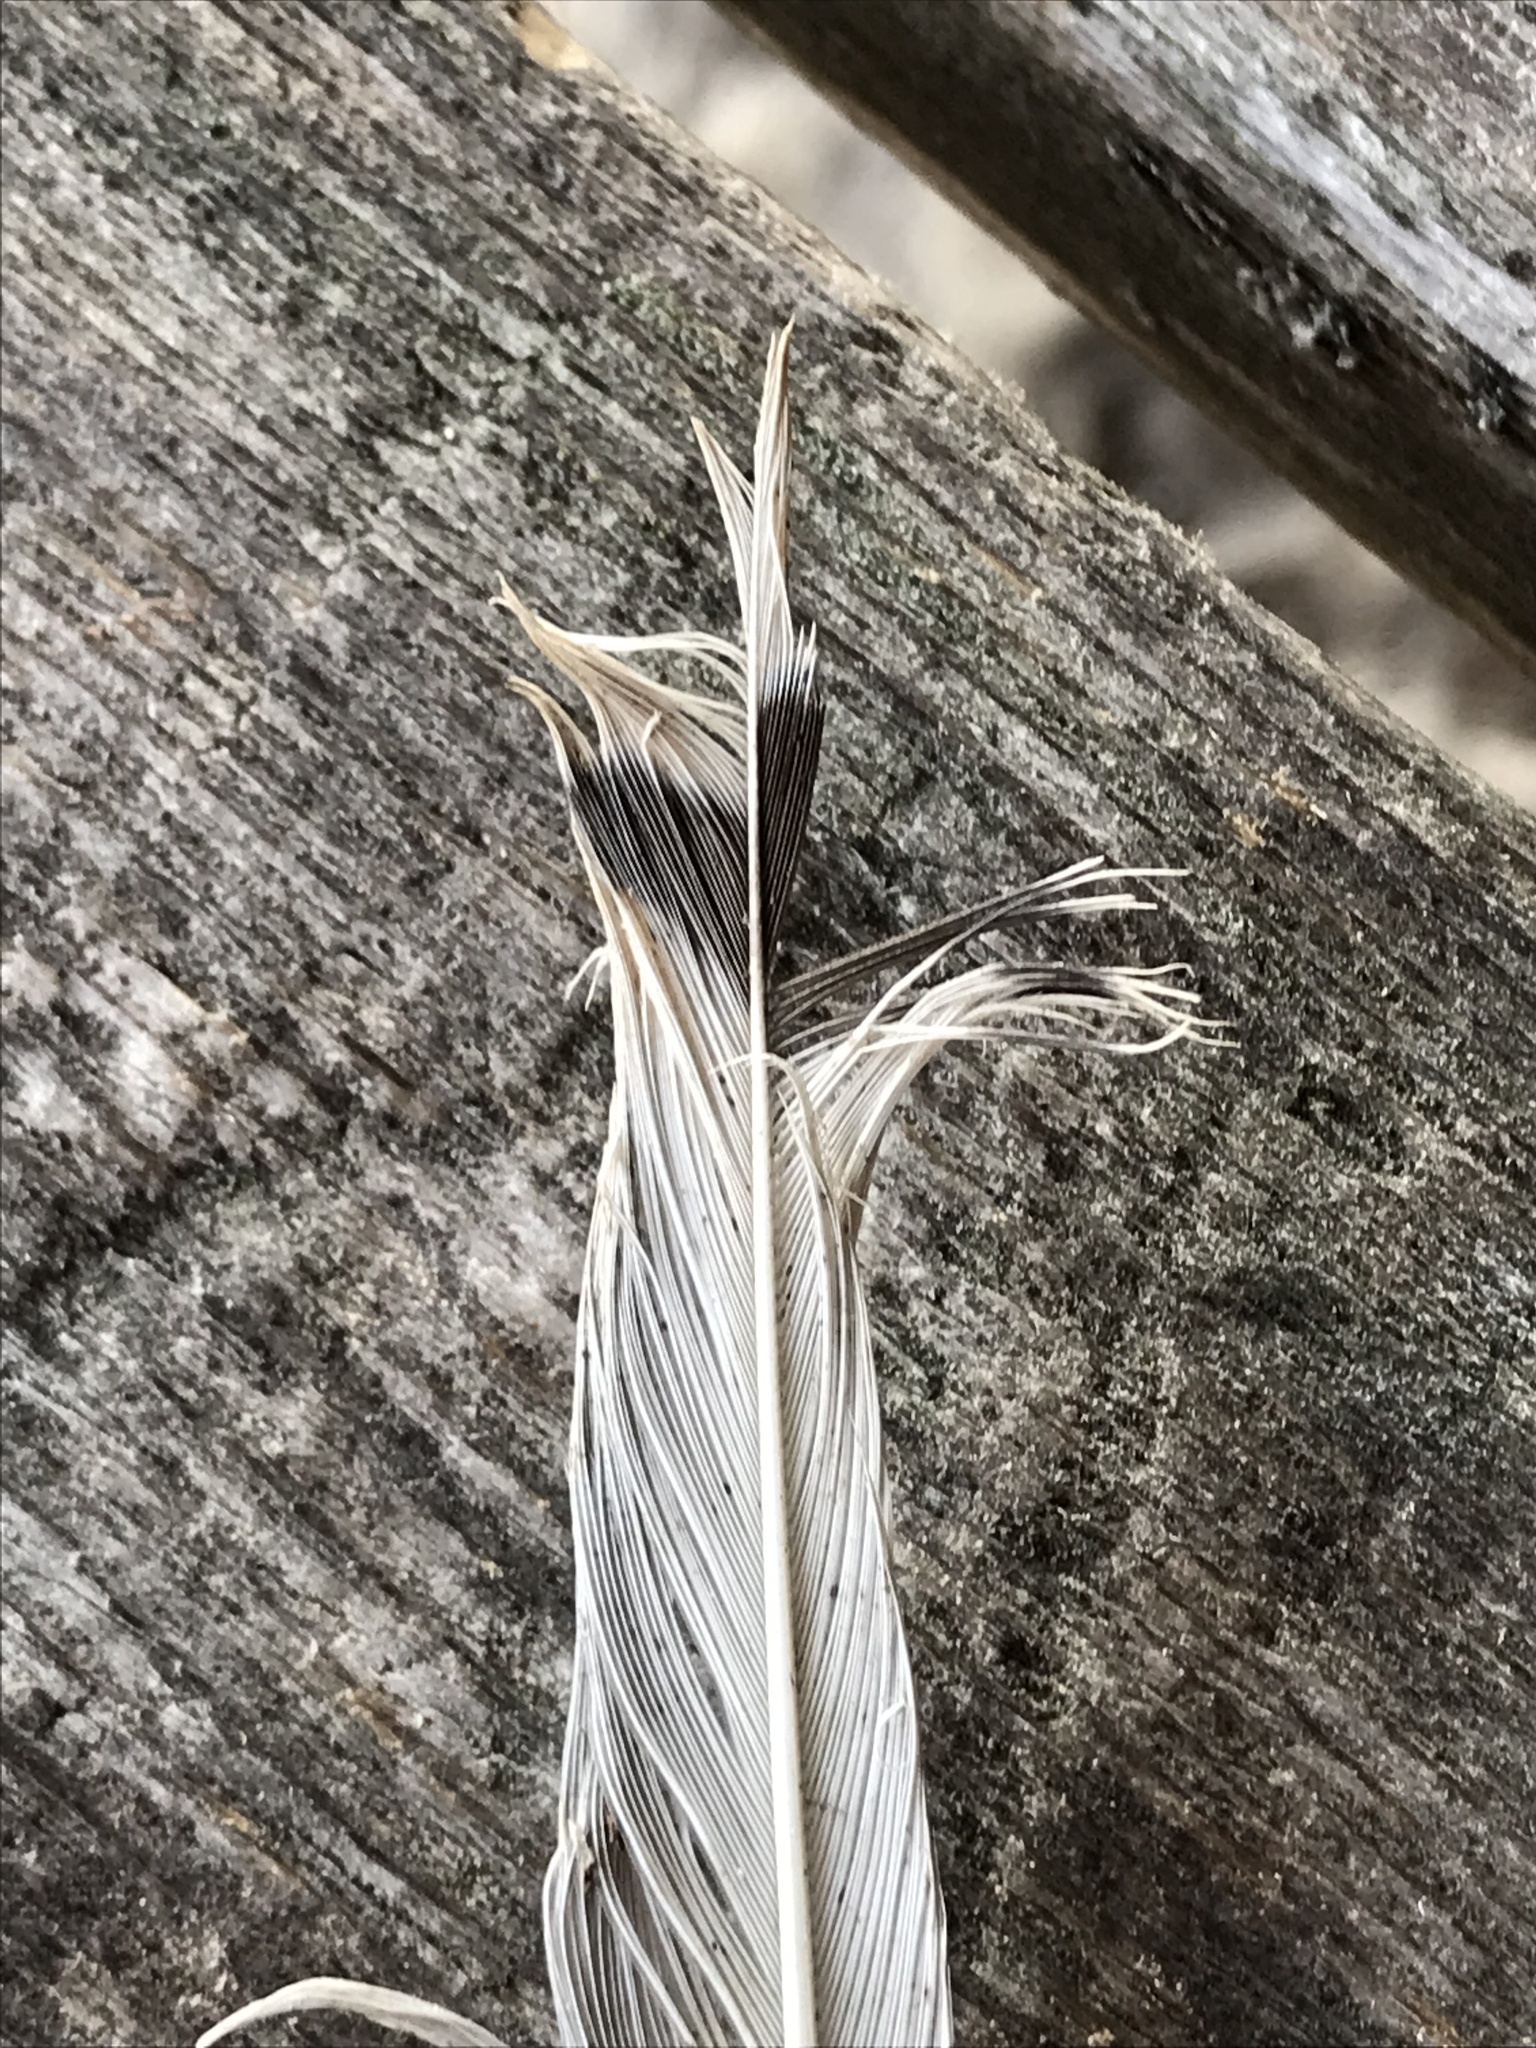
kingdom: Animalia
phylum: Chordata
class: Aves
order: Charadriiformes
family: Laridae
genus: Larus
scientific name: Larus delawarensis
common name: Ring-billed gull
